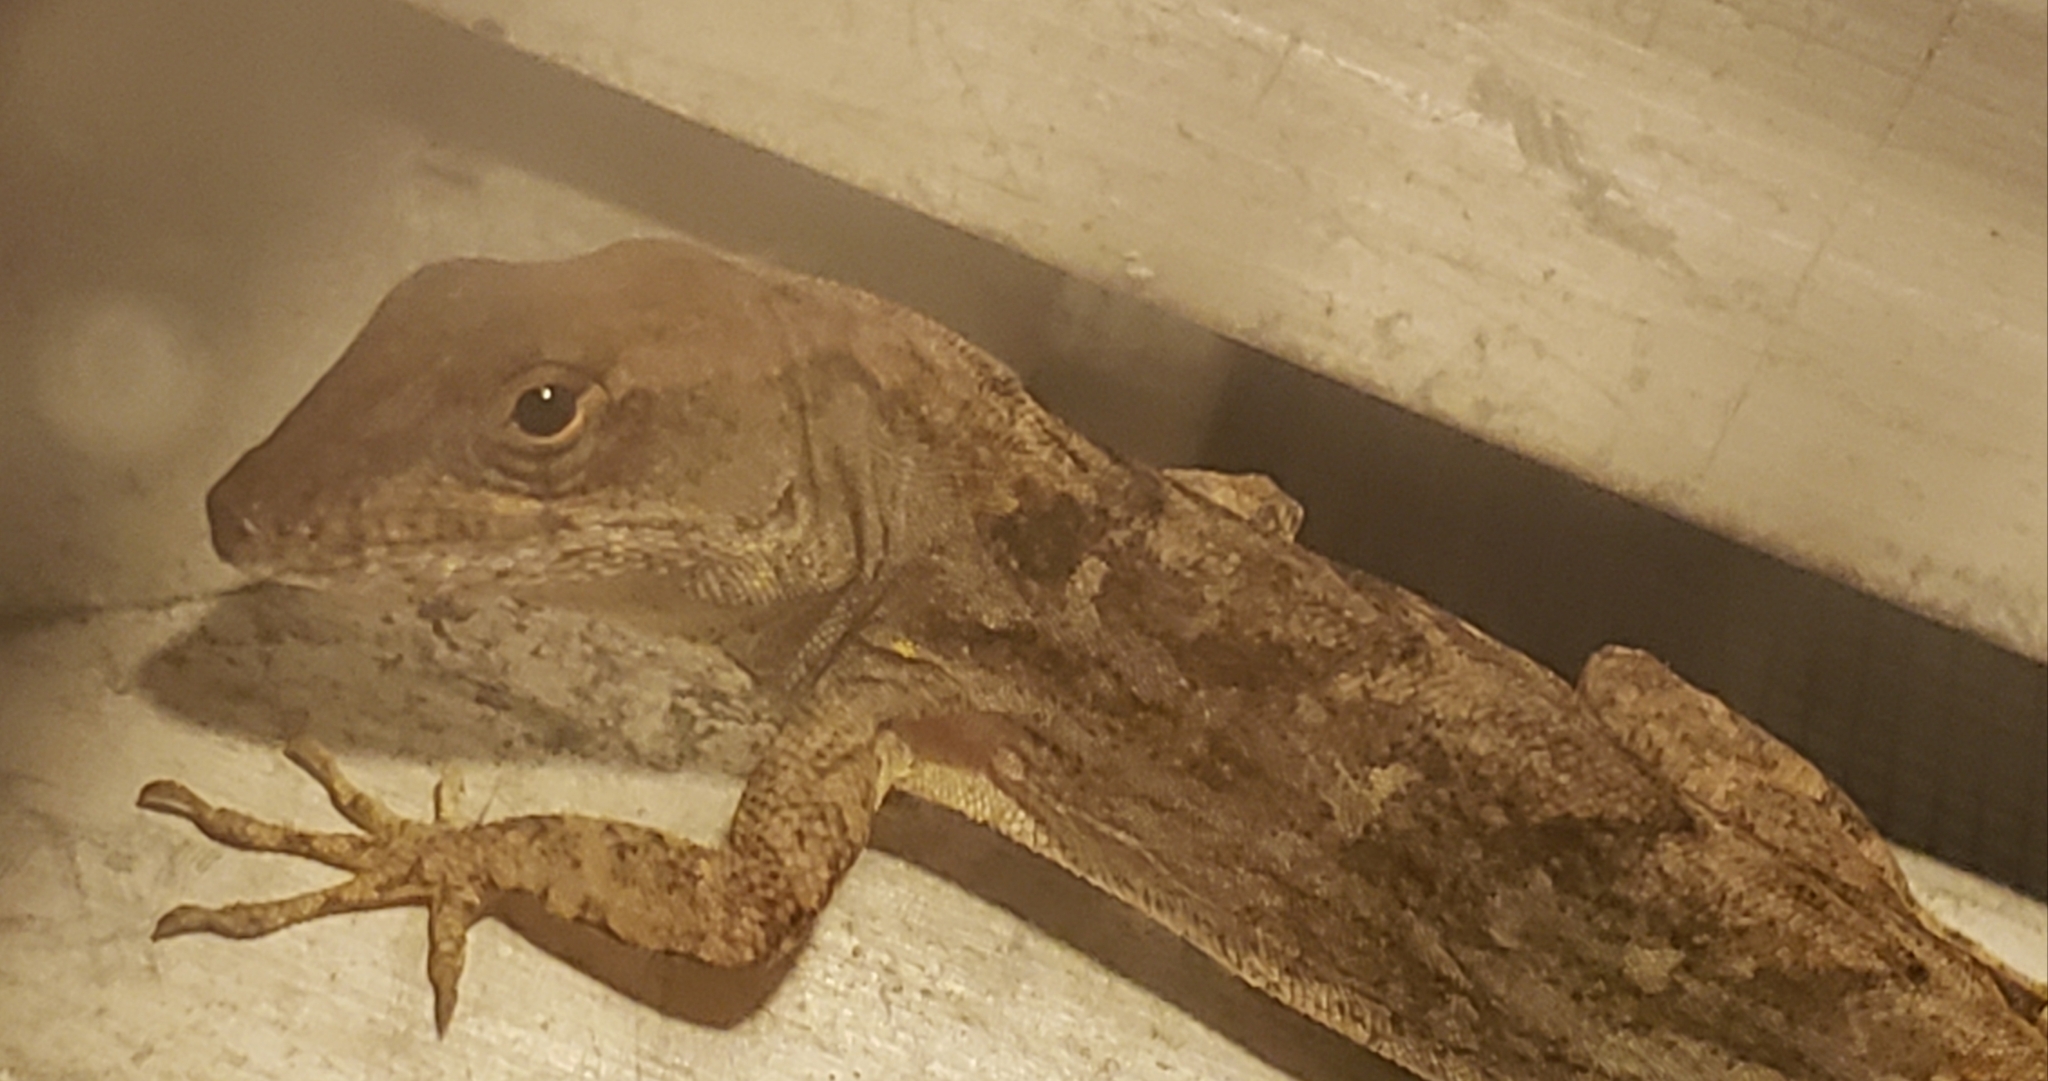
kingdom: Animalia
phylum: Chordata
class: Squamata
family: Dactyloidae
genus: Anolis
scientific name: Anolis sagrei
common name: Brown anole
